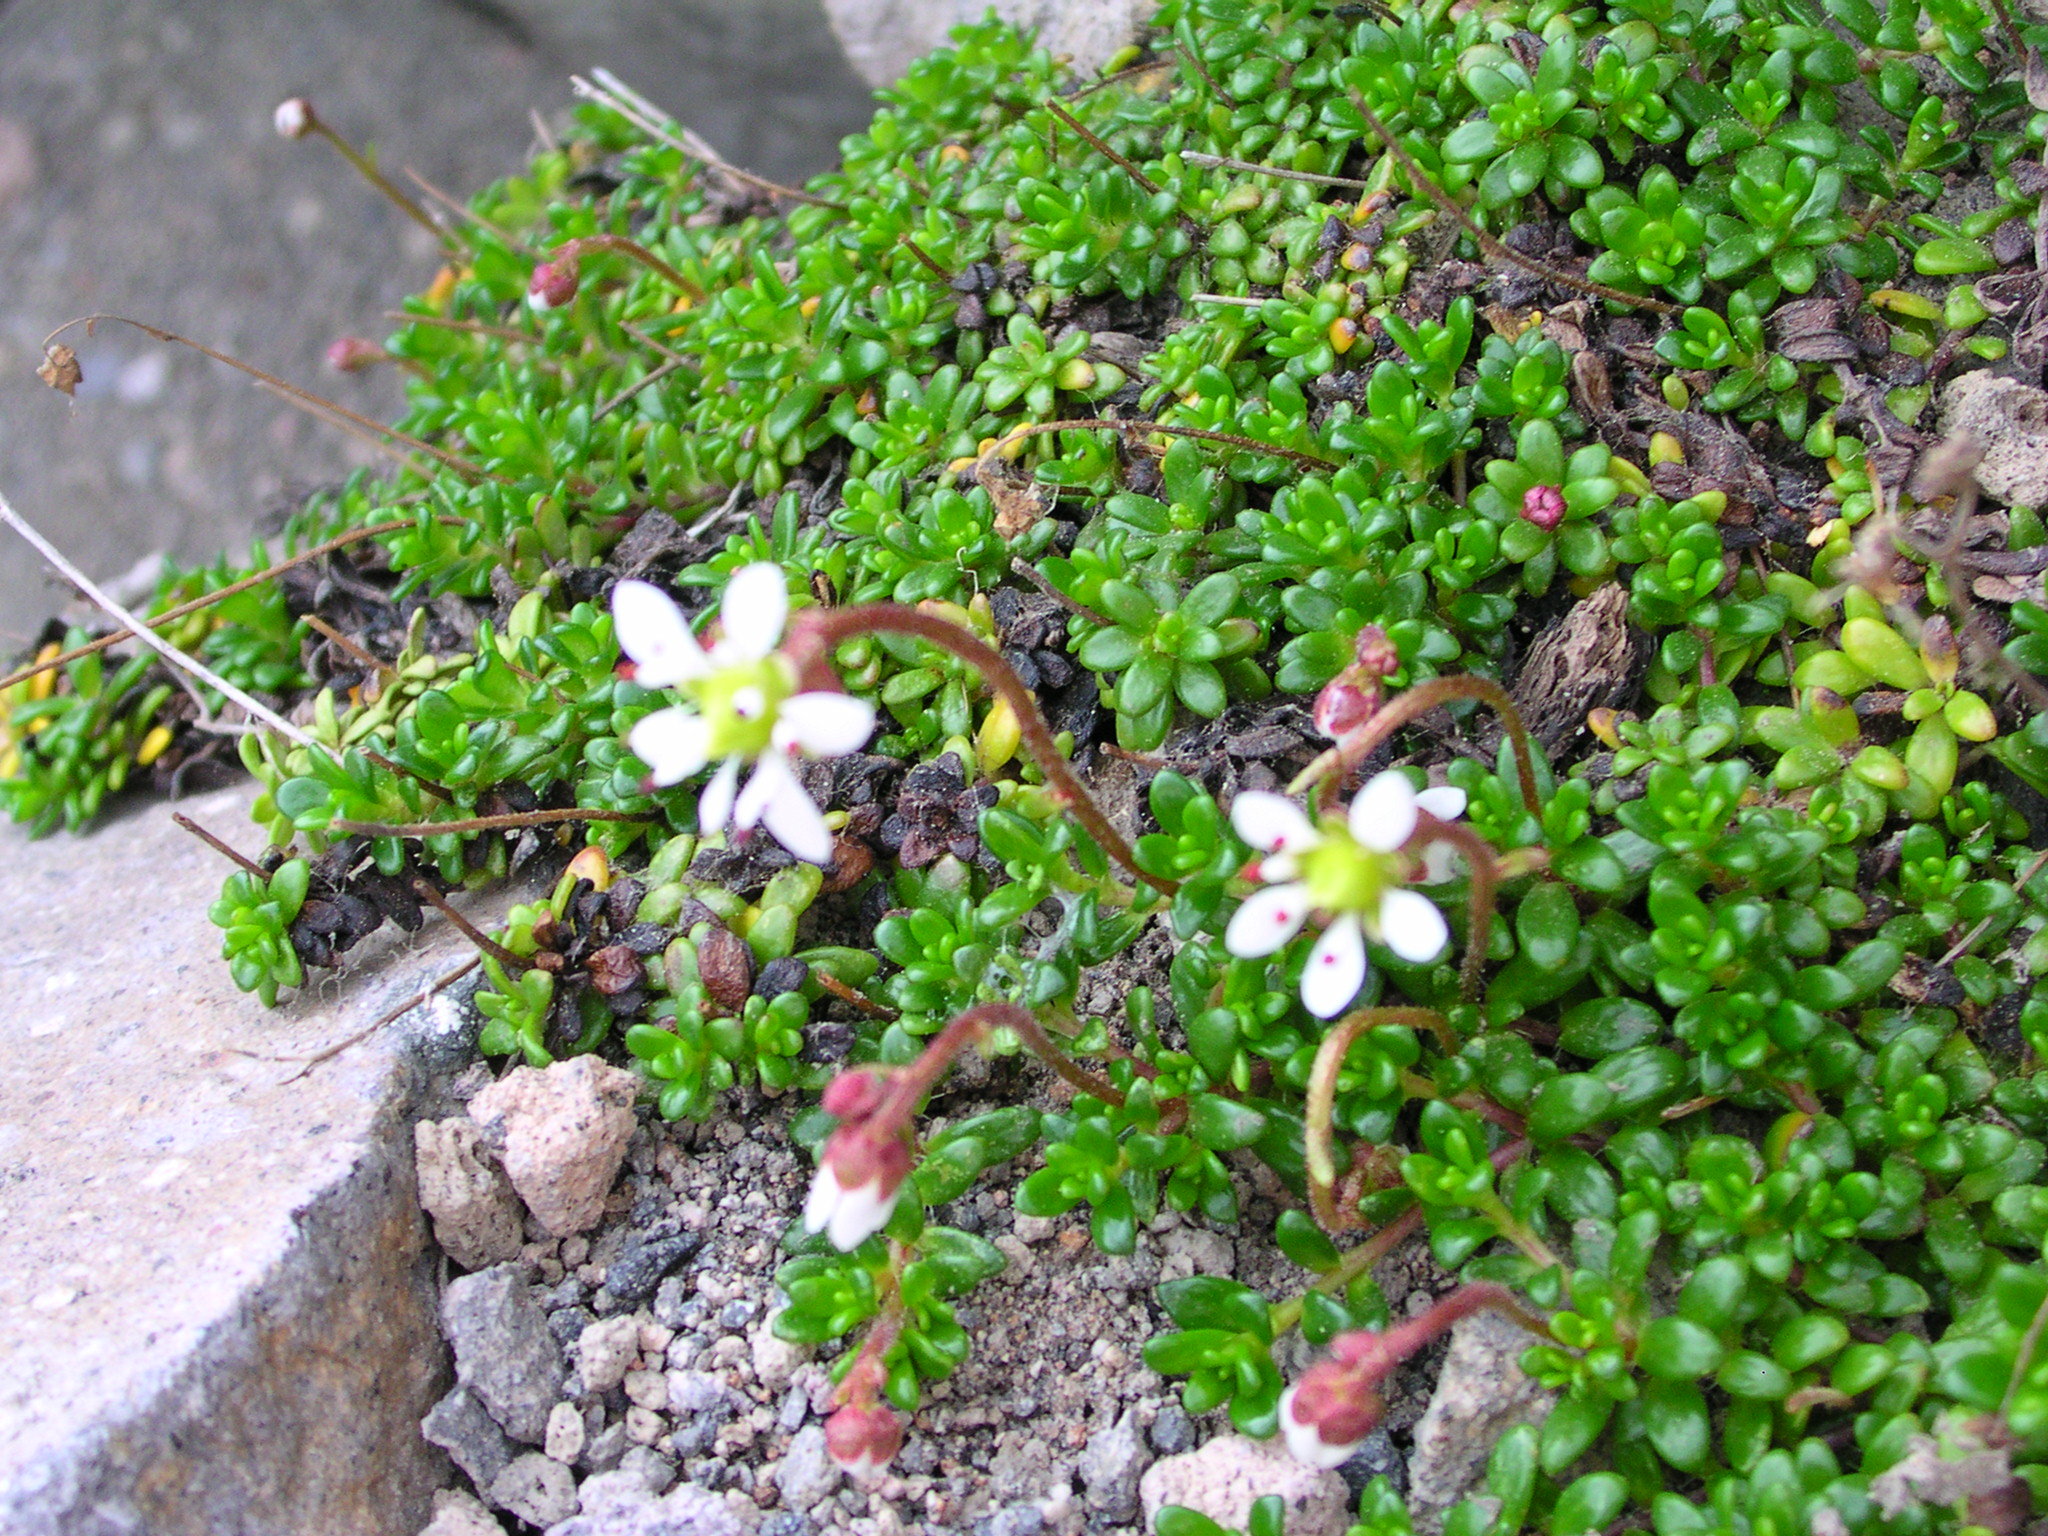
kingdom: Plantae
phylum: Tracheophyta
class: Magnoliopsida
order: Saxifragales
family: Saxifragaceae
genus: Micranthes
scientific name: Micranthes tolmiei
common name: Tolmie's saxifrage
